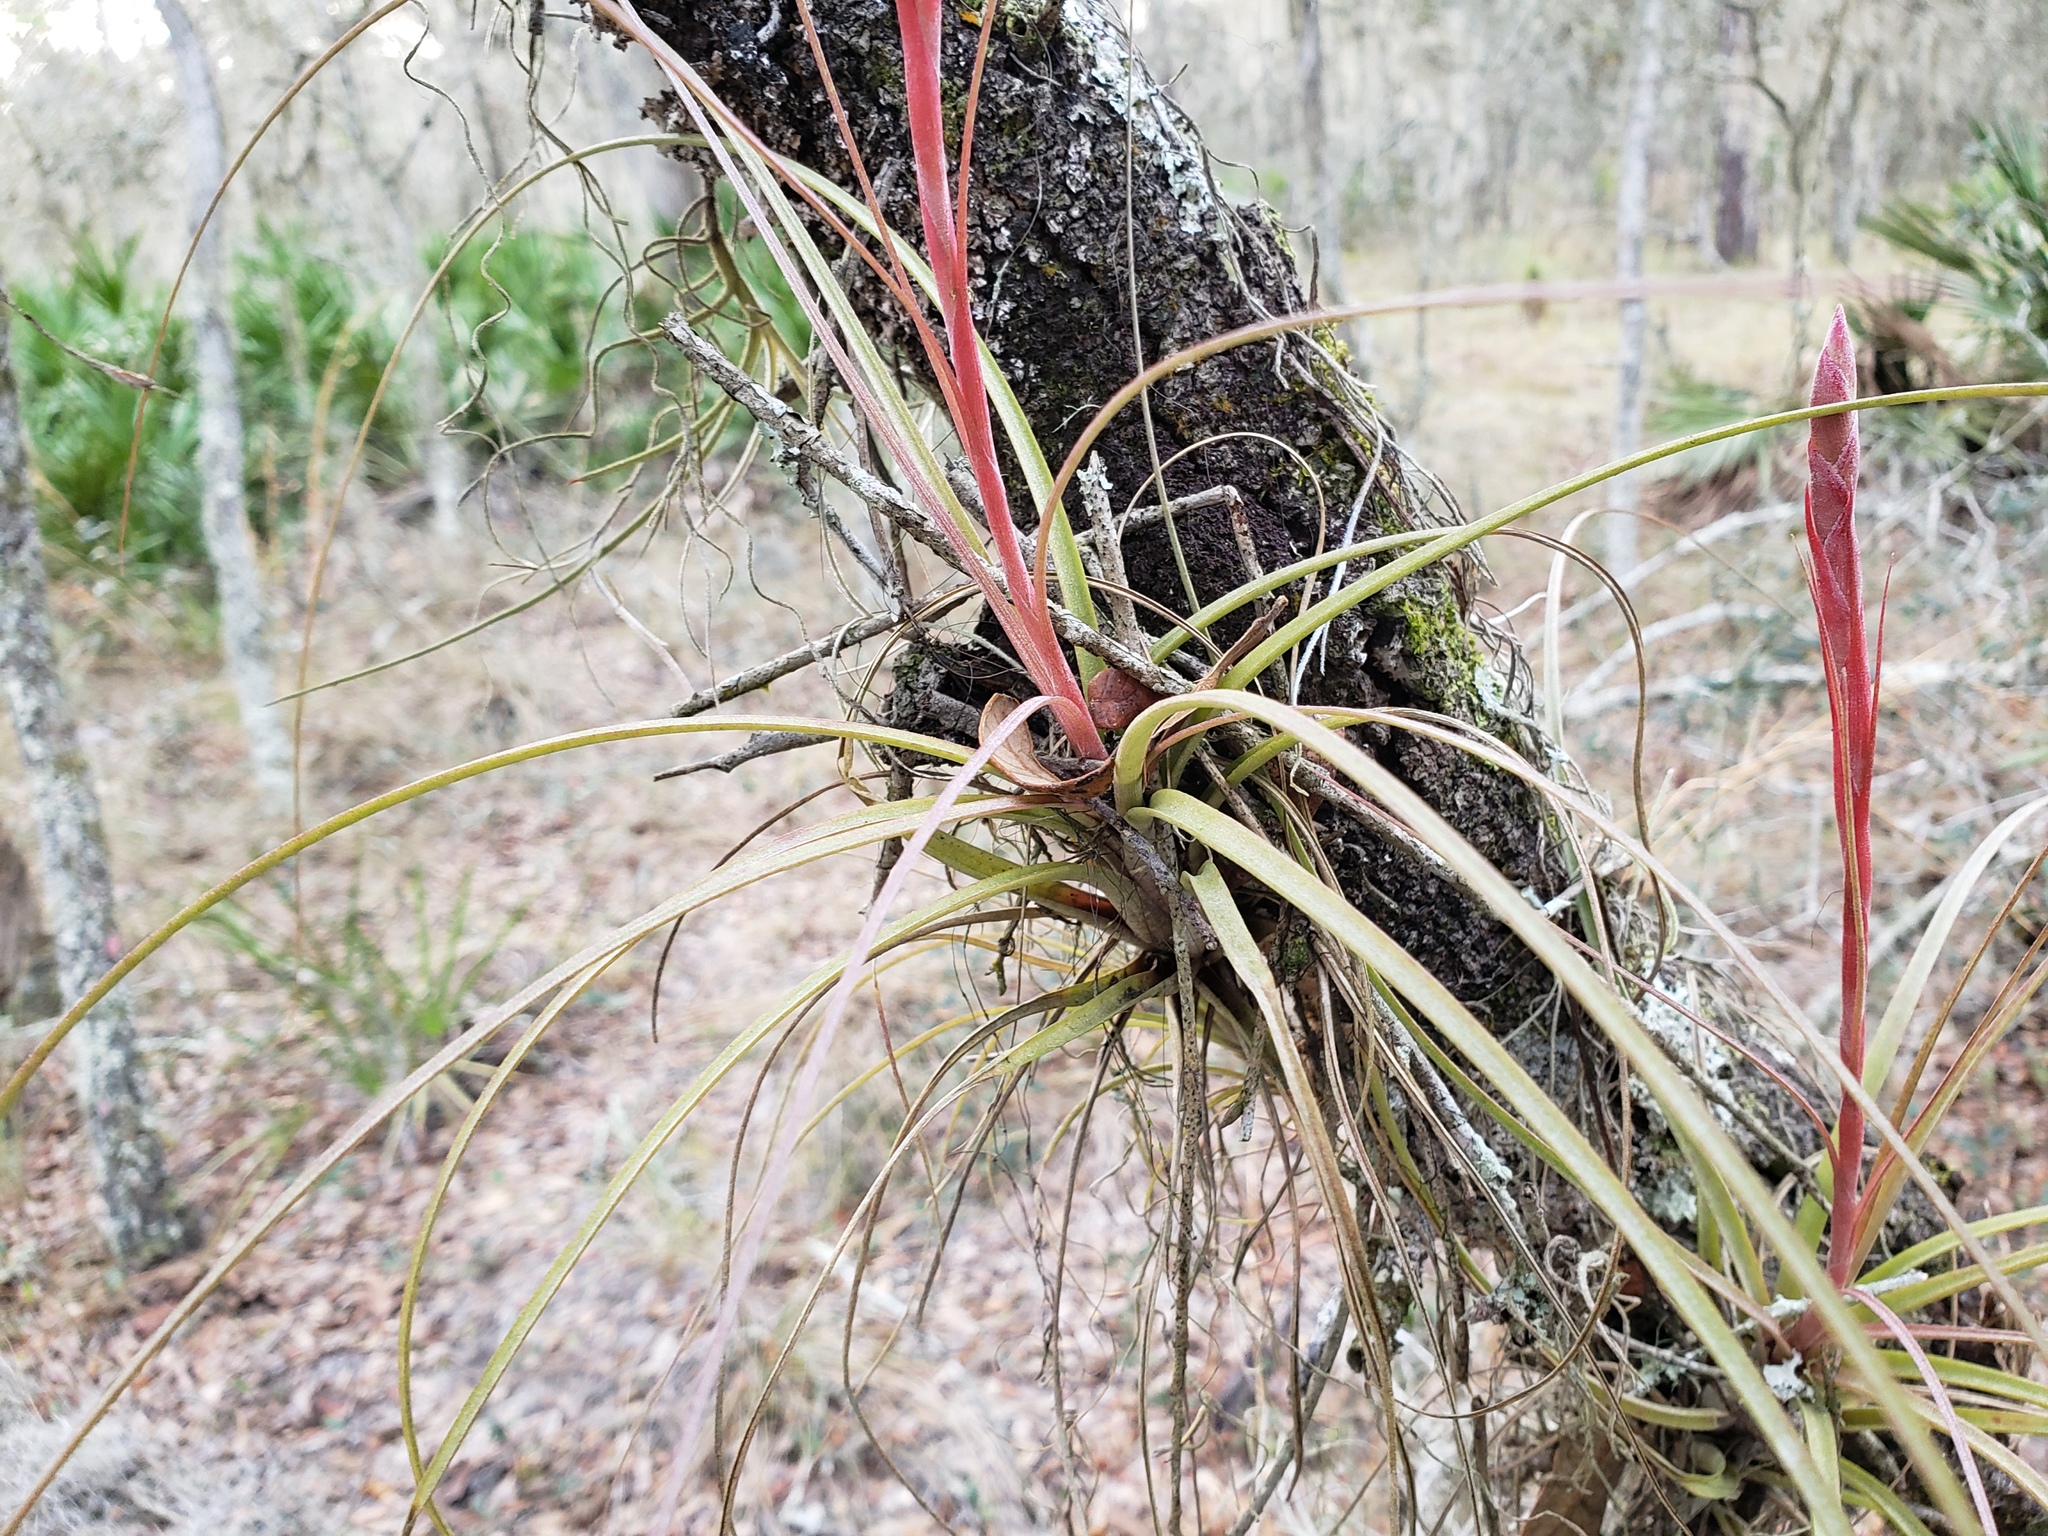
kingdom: Plantae
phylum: Tracheophyta
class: Liliopsida
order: Poales
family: Bromeliaceae
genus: Tillandsia
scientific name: Tillandsia simulata
